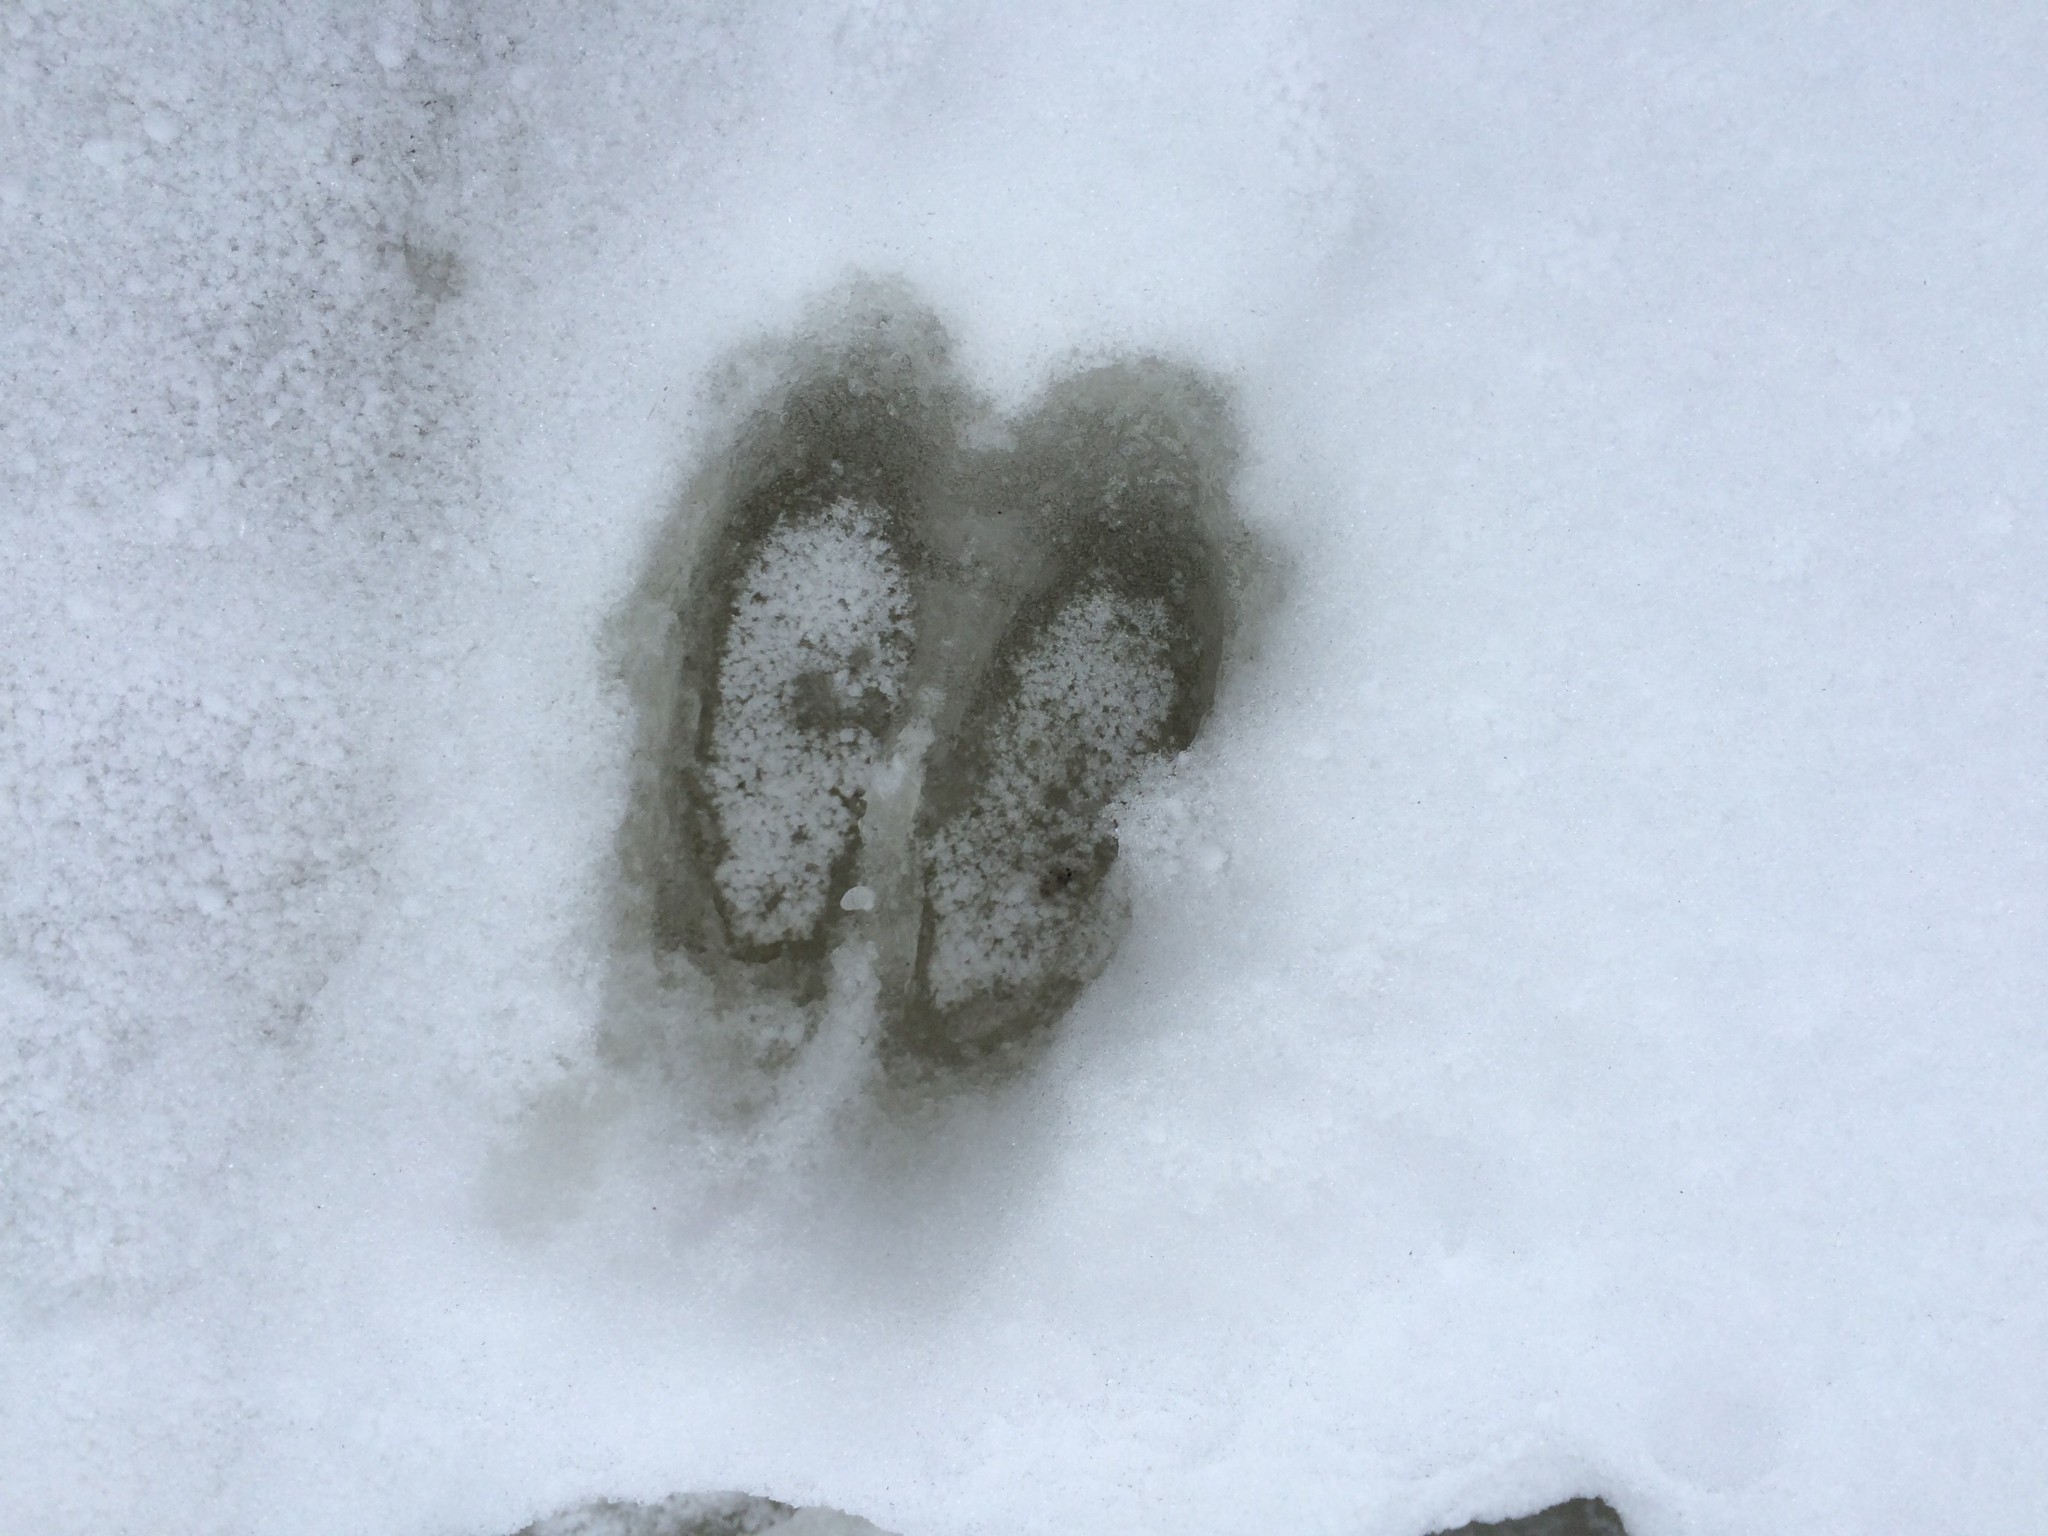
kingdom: Animalia
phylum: Chordata
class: Mammalia
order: Artiodactyla
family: Cervidae
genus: Odocoileus
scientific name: Odocoileus virginianus
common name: White-tailed deer
